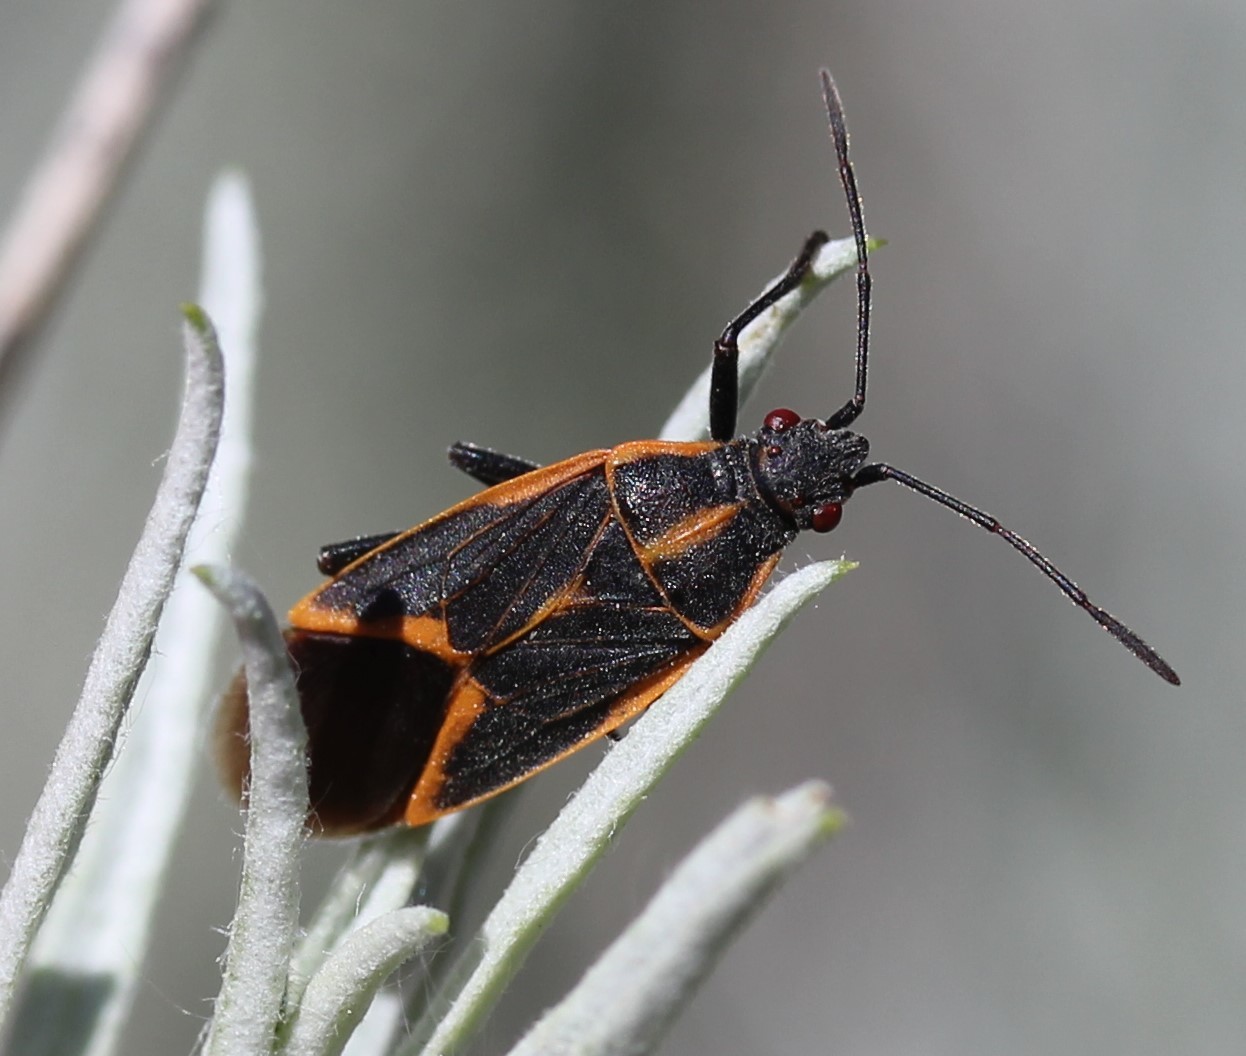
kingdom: Animalia
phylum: Arthropoda
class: Insecta
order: Hemiptera
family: Rhopalidae
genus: Boisea
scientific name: Boisea trivittata
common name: Boxelder bug
